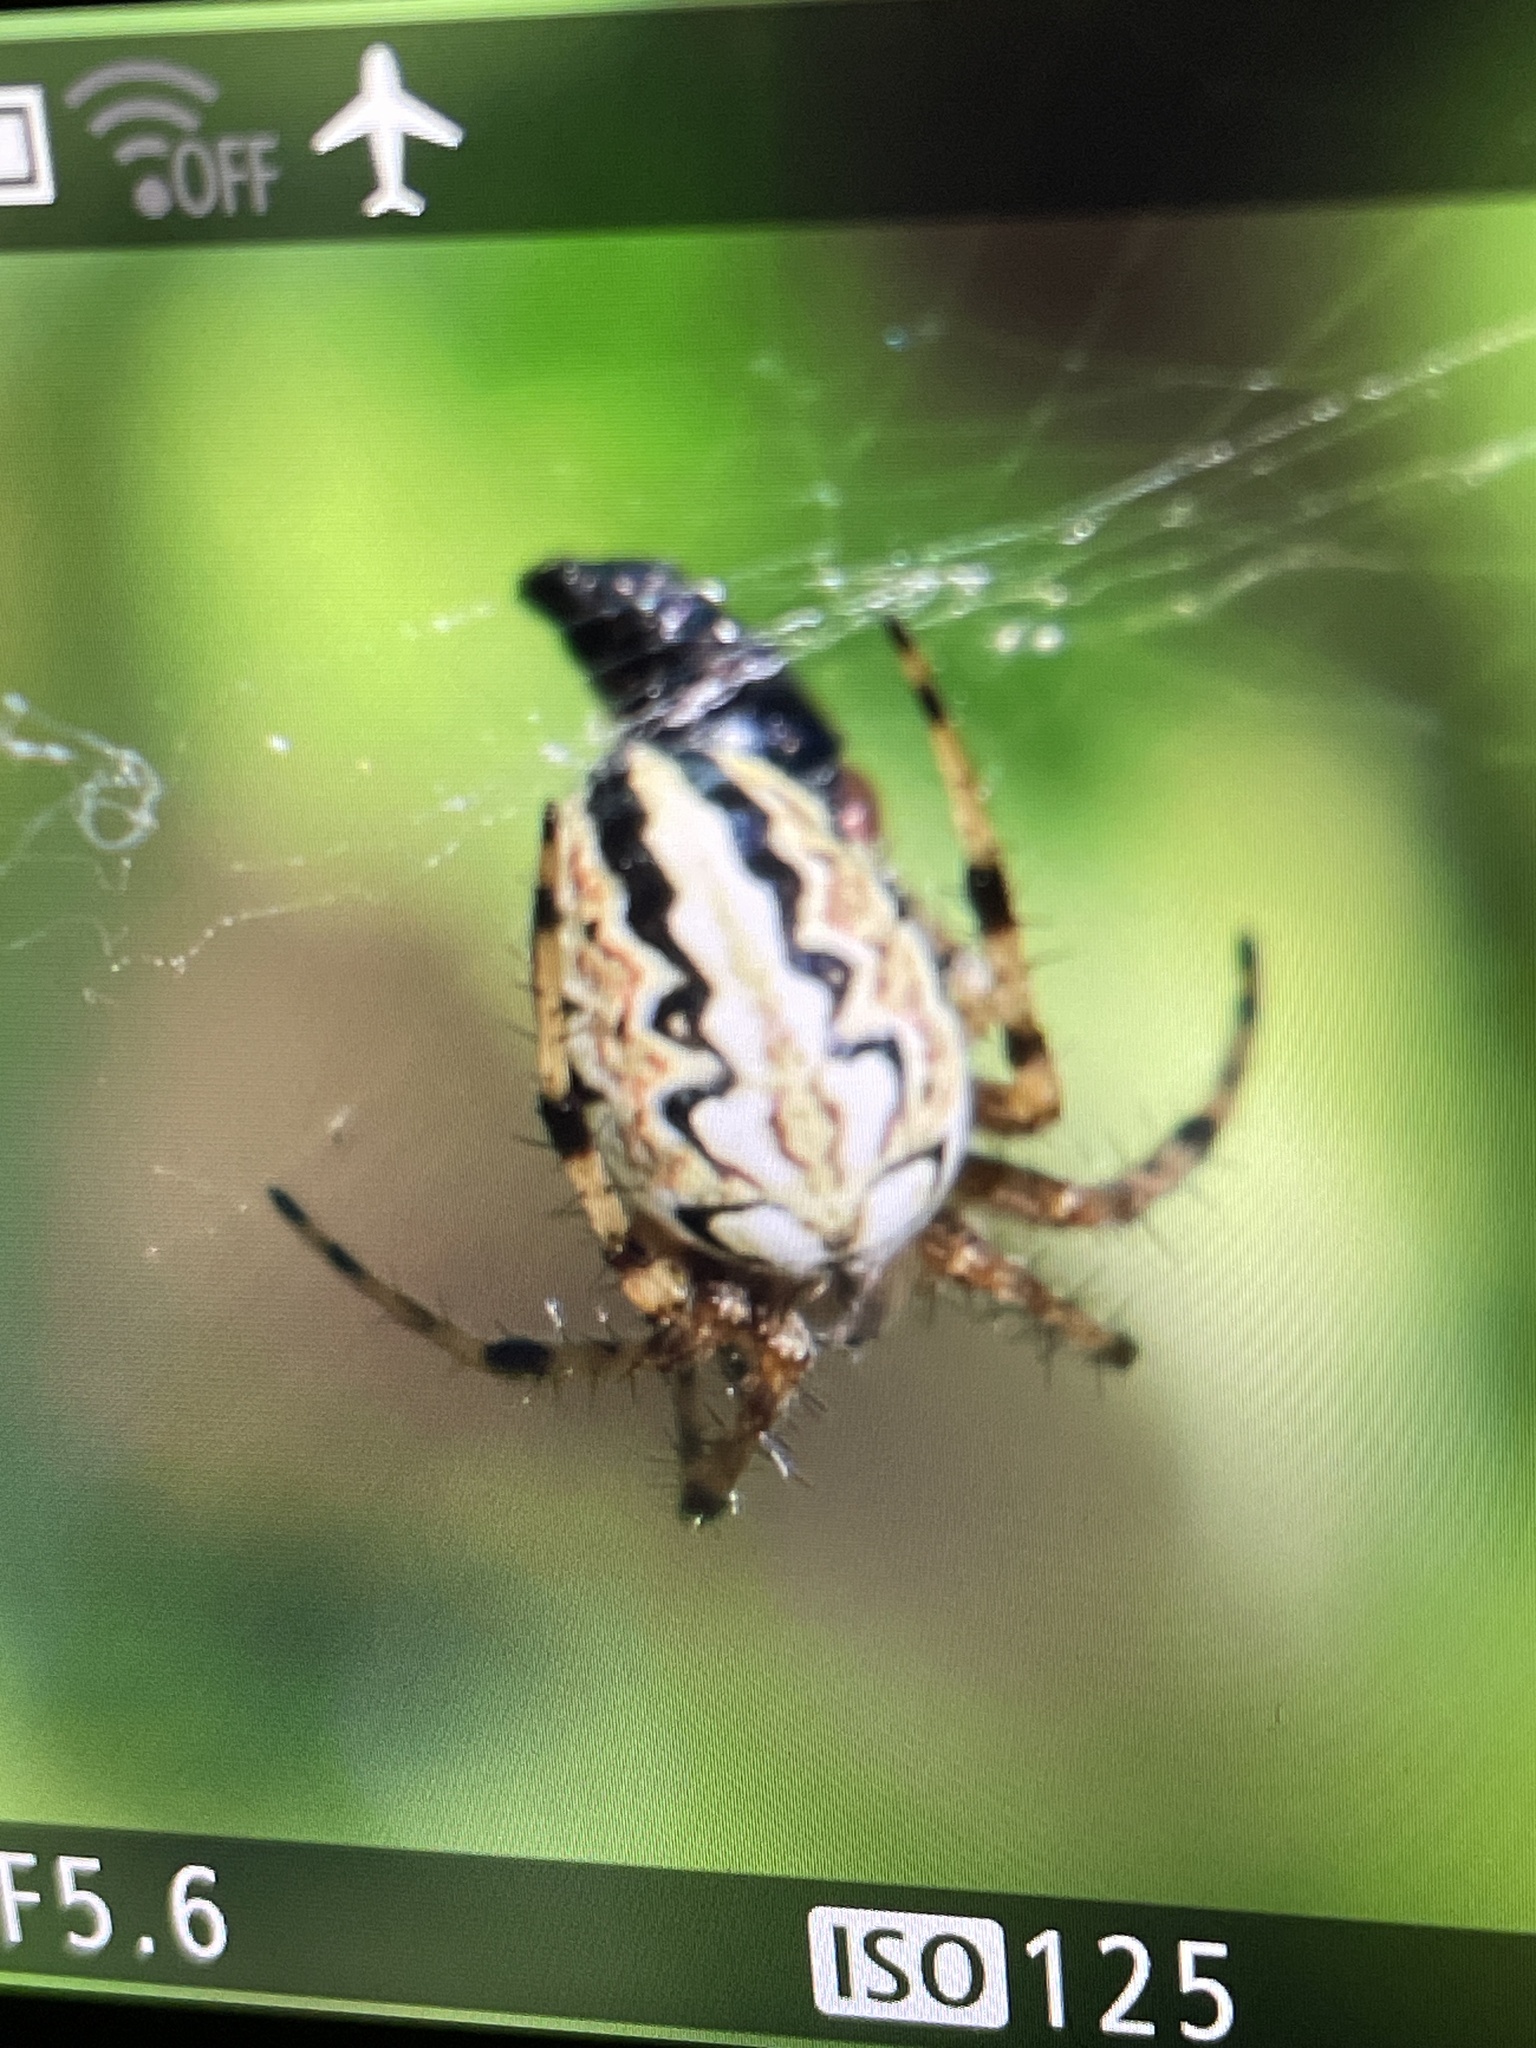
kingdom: Animalia
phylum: Arthropoda
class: Arachnida
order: Araneae
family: Araneidae
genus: Neoscona
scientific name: Neoscona adianta
